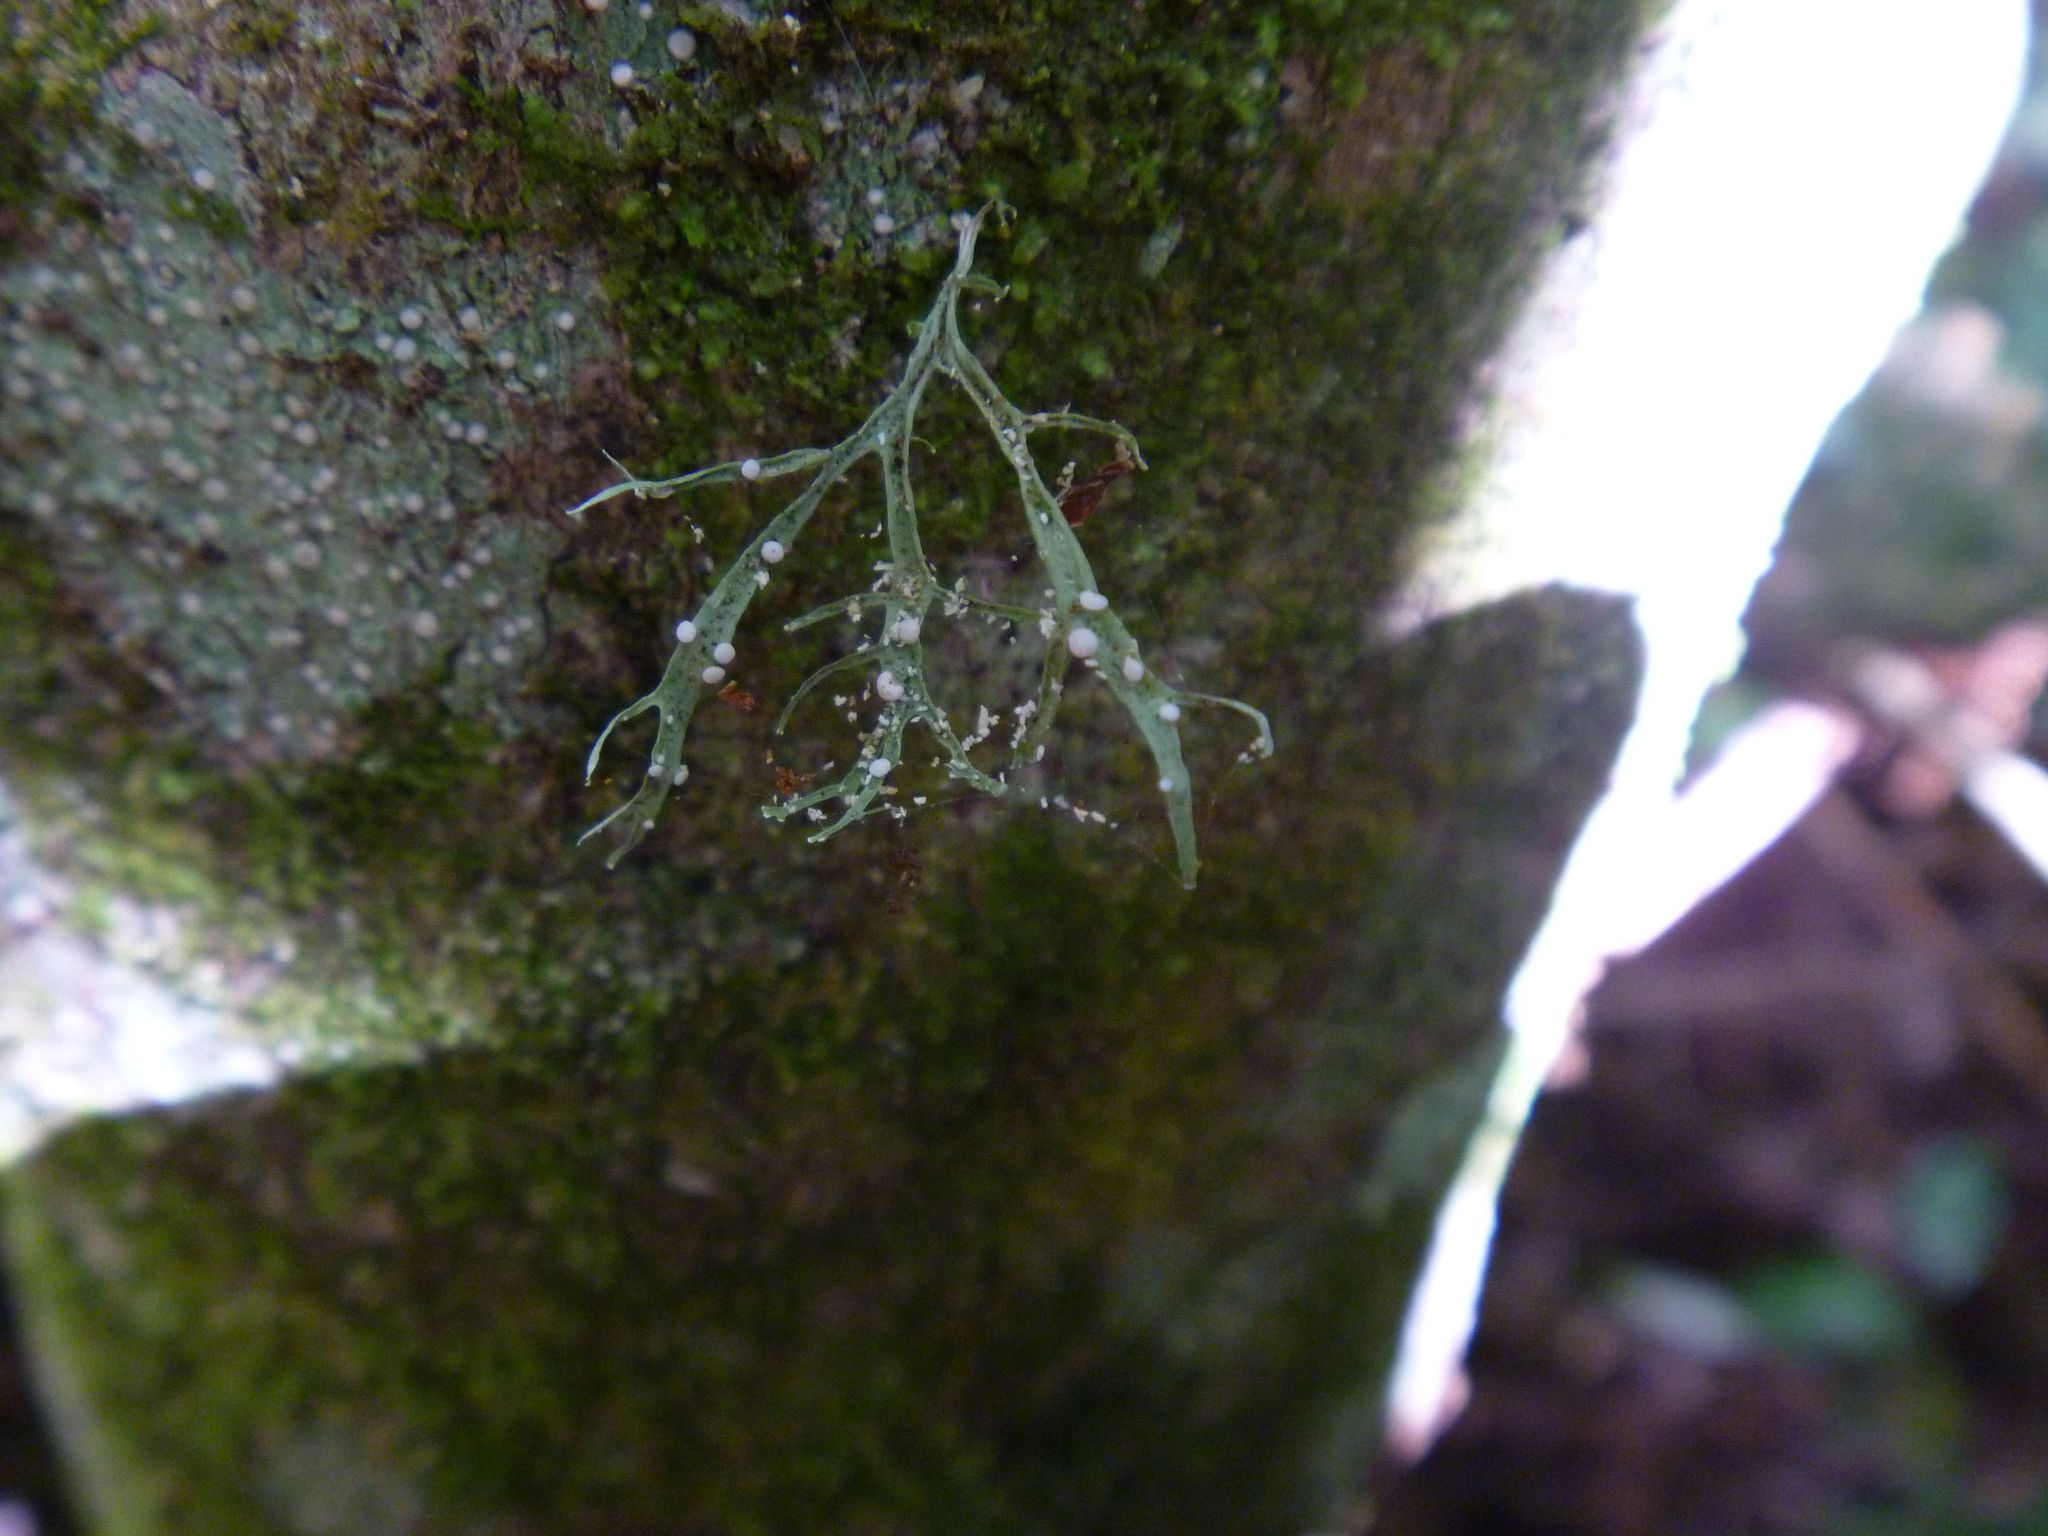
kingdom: Fungi
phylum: Ascomycota
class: Lecanoromycetes
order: Lecanorales
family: Ramalinaceae
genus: Ramalina
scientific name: Ramalina celastri
